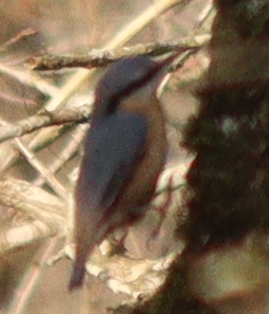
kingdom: Animalia
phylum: Chordata
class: Aves
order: Passeriformes
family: Sittidae
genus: Sitta
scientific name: Sitta europaea
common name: Eurasian nuthatch
